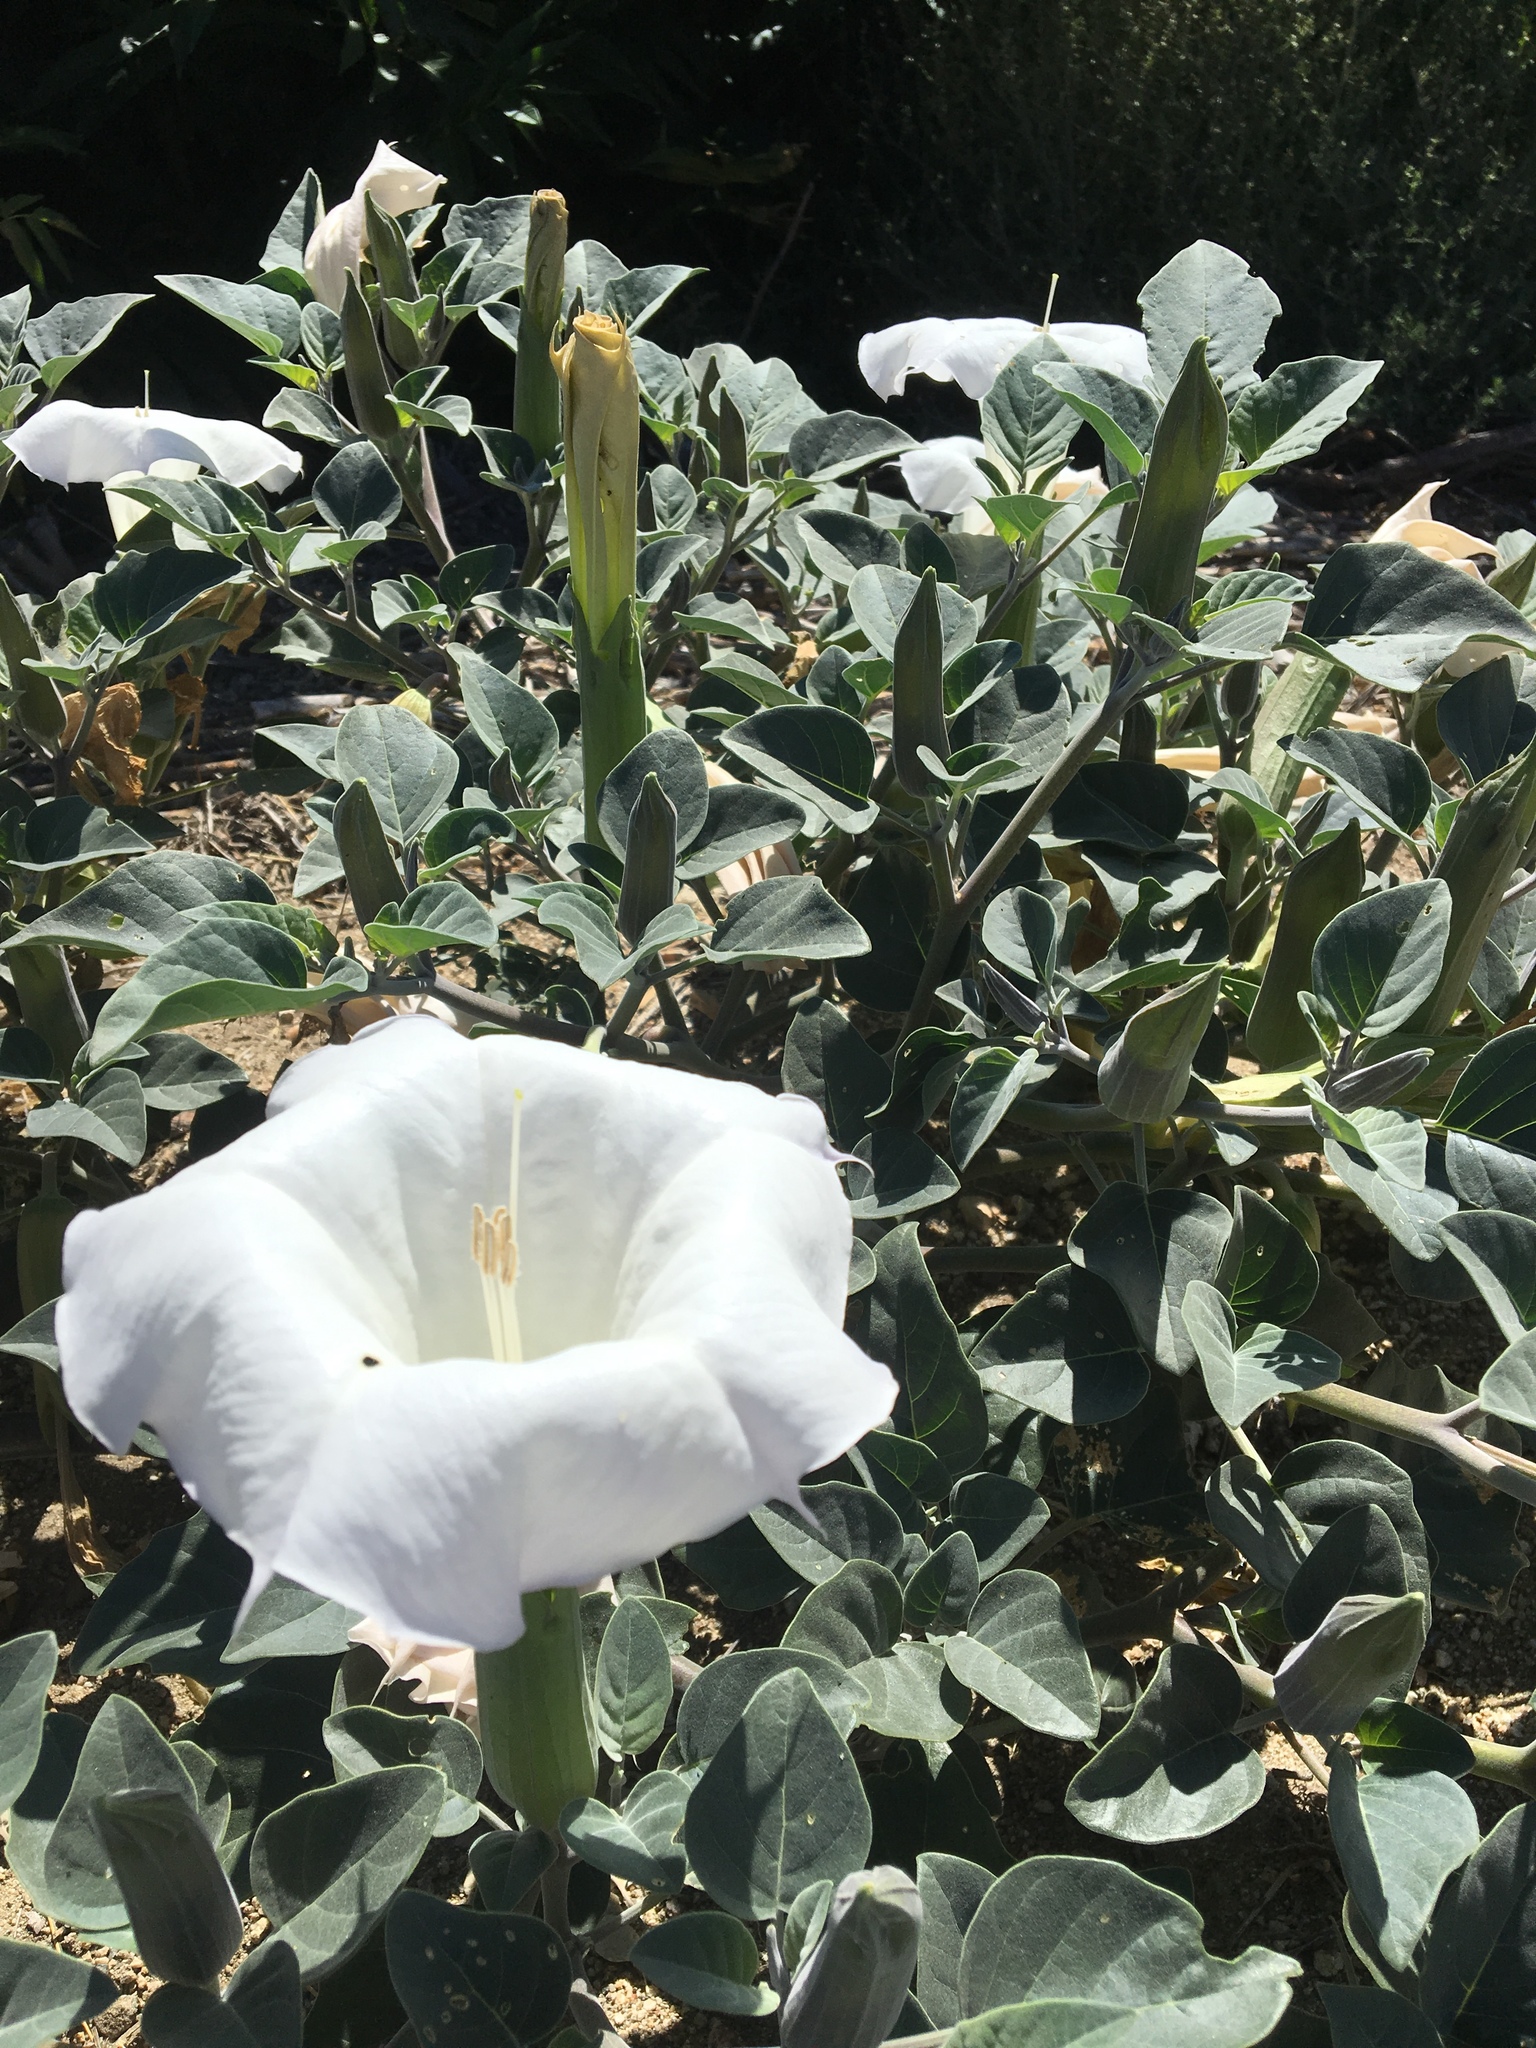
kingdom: Plantae
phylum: Tracheophyta
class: Magnoliopsida
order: Solanales
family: Solanaceae
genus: Datura
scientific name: Datura wrightii
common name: Sacred thorn-apple
